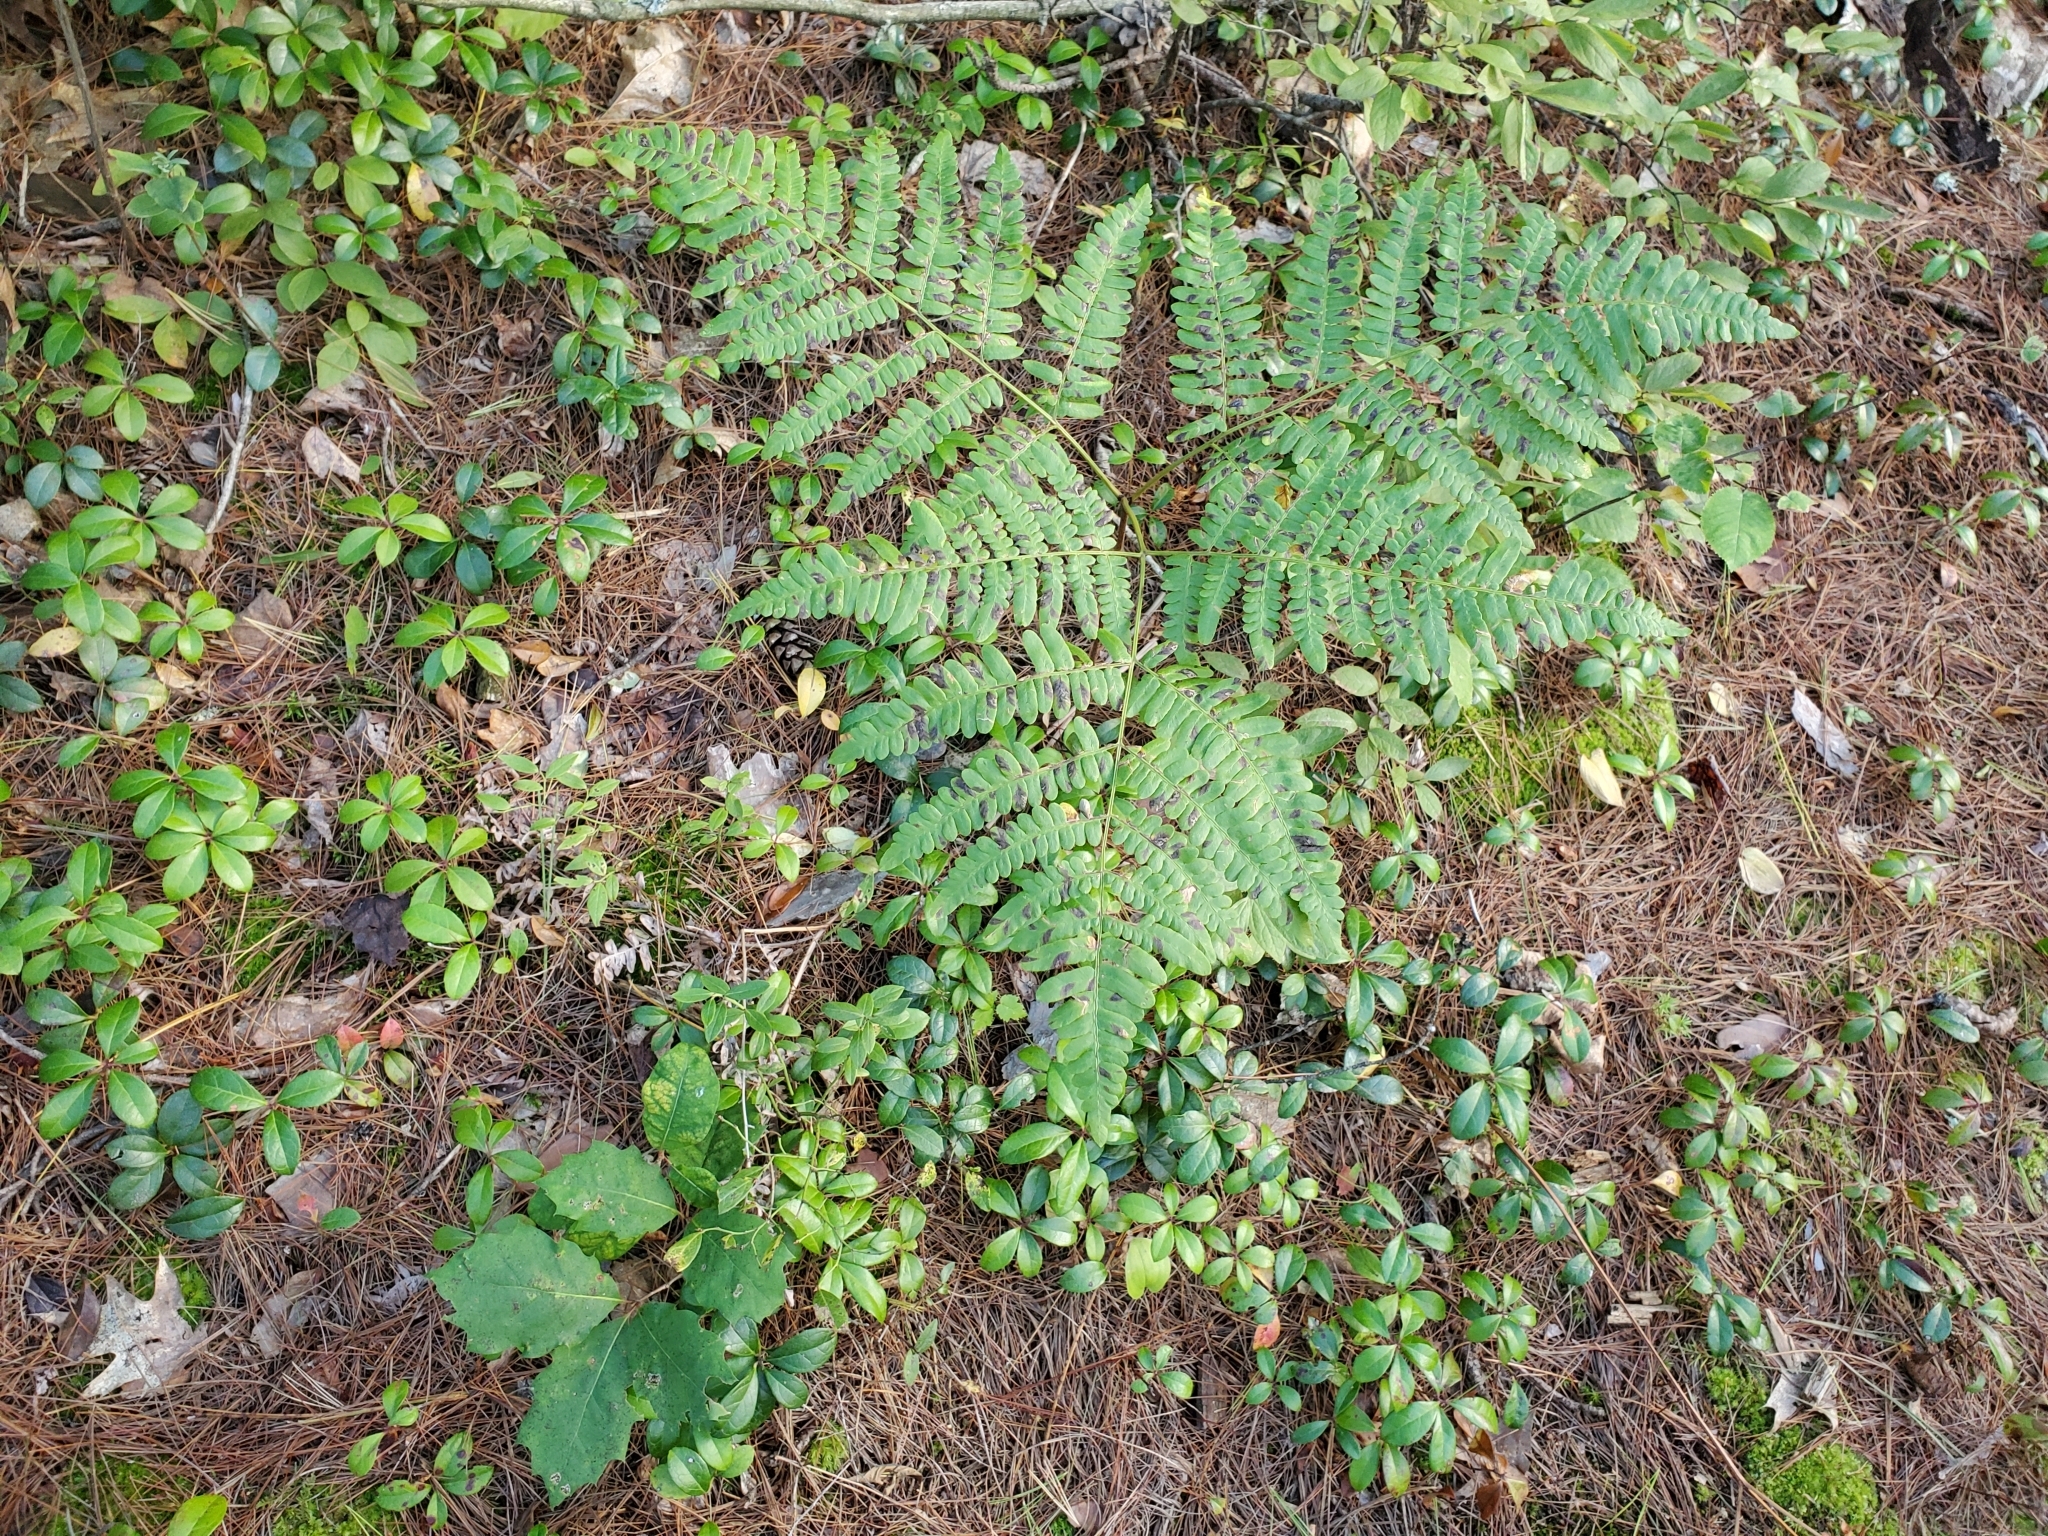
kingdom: Plantae
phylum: Tracheophyta
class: Polypodiopsida
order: Polypodiales
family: Dennstaedtiaceae
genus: Pteridium
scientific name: Pteridium aquilinum
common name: Bracken
